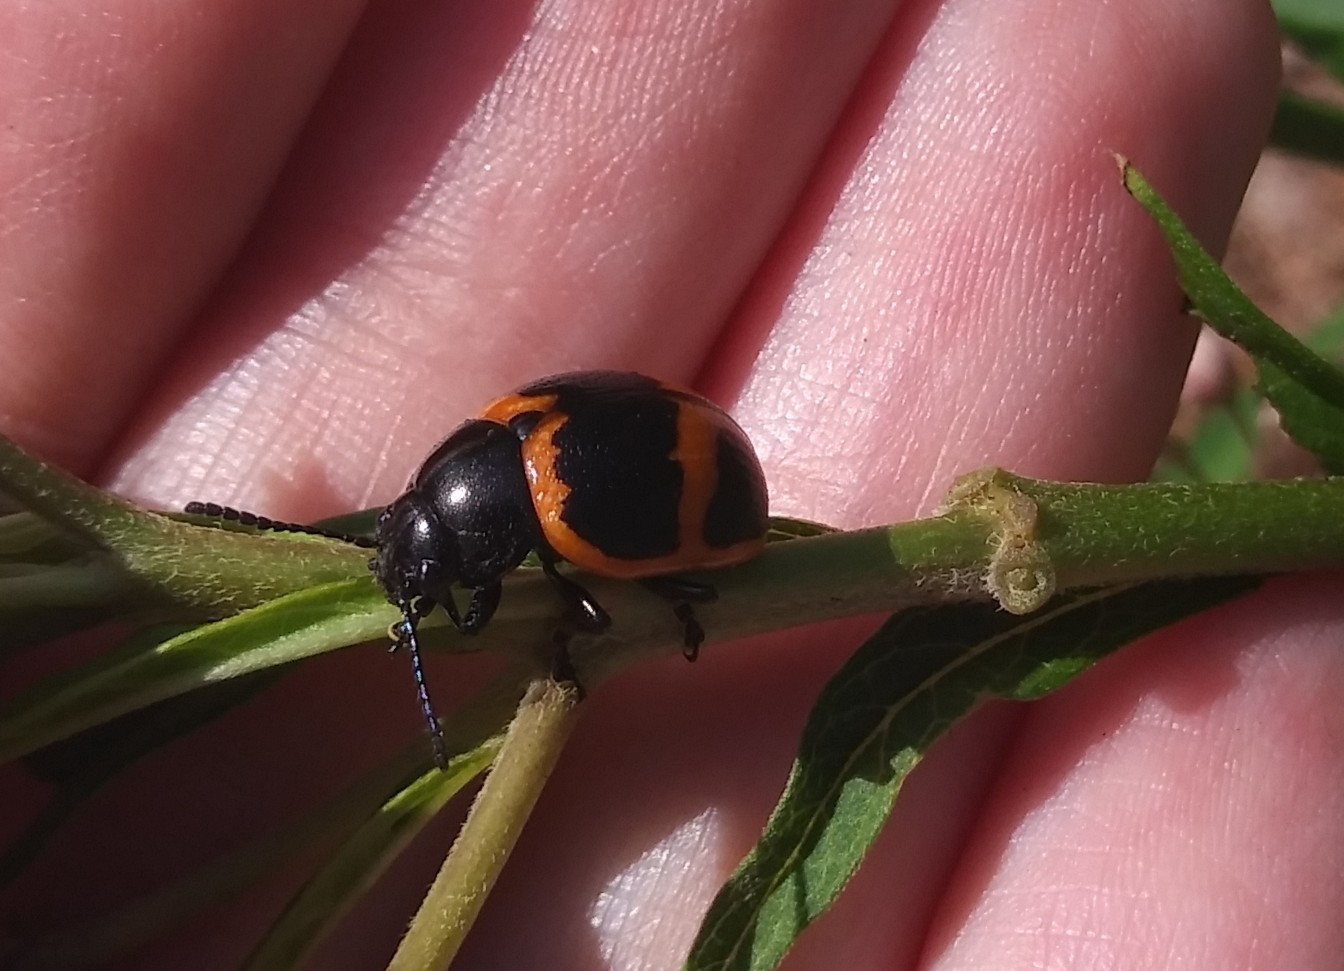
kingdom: Animalia
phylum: Arthropoda
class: Insecta
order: Coleoptera
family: Chrysomelidae
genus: Labidomera
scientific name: Labidomera clivicollis
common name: Swamp milkweed leaf beetle
